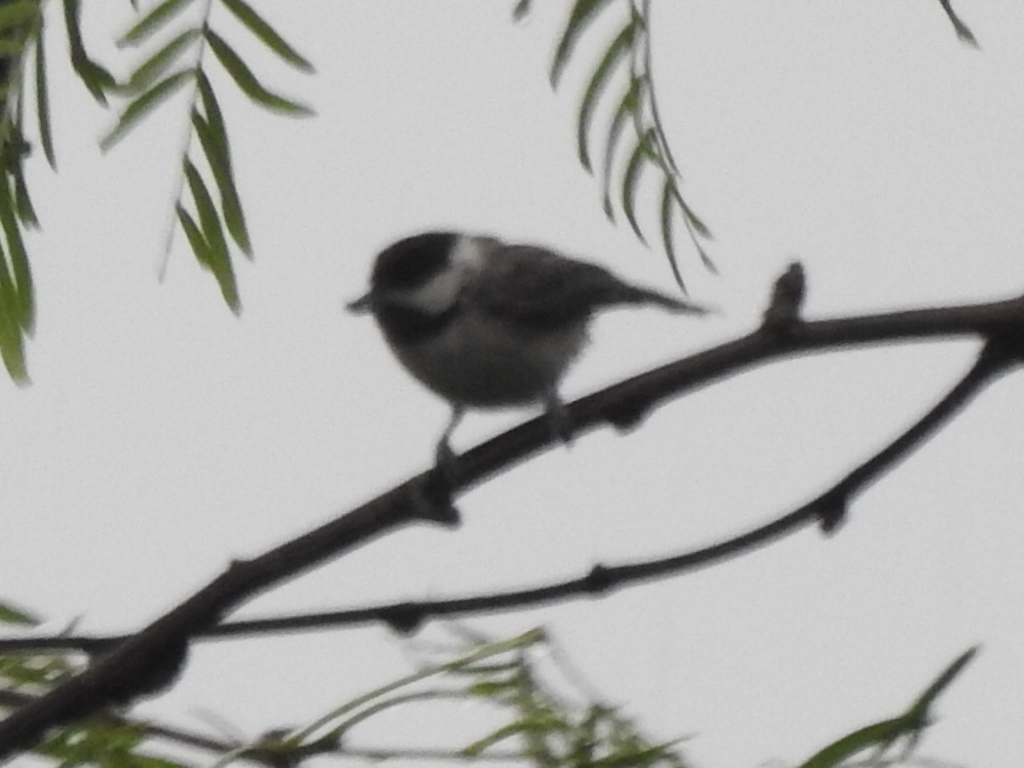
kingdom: Animalia
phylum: Chordata
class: Aves
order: Passeriformes
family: Paridae
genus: Poecile
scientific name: Poecile carolinensis
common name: Carolina chickadee
